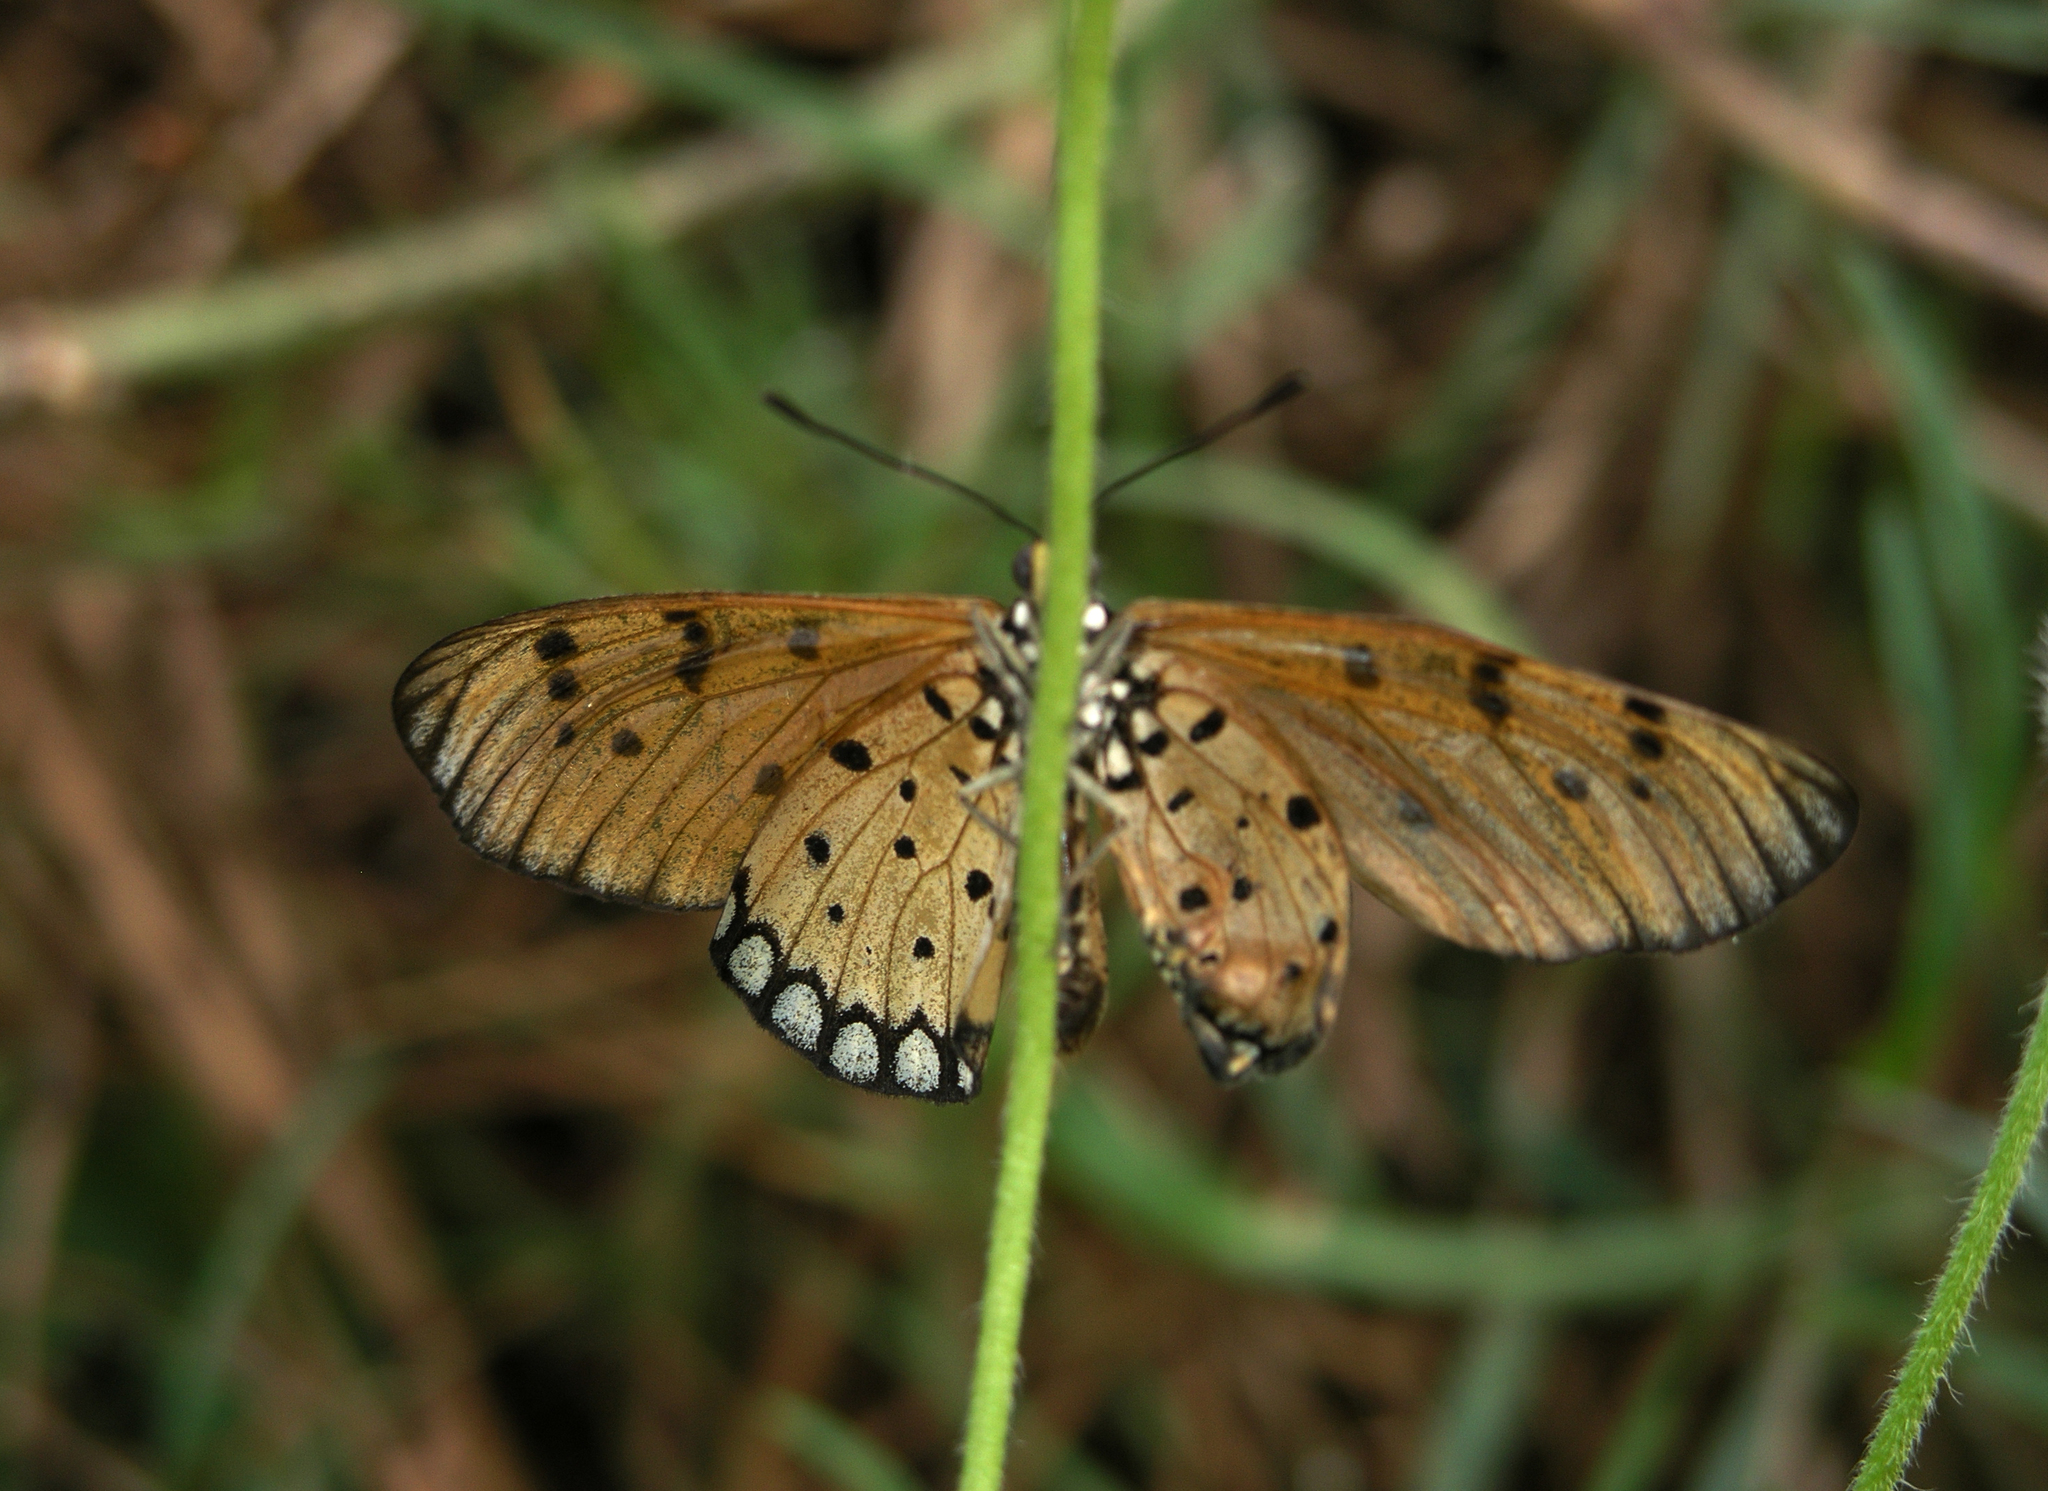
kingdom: Animalia
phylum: Arthropoda
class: Insecta
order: Lepidoptera
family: Nymphalidae
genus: Acraea
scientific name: Acraea terpsicore
